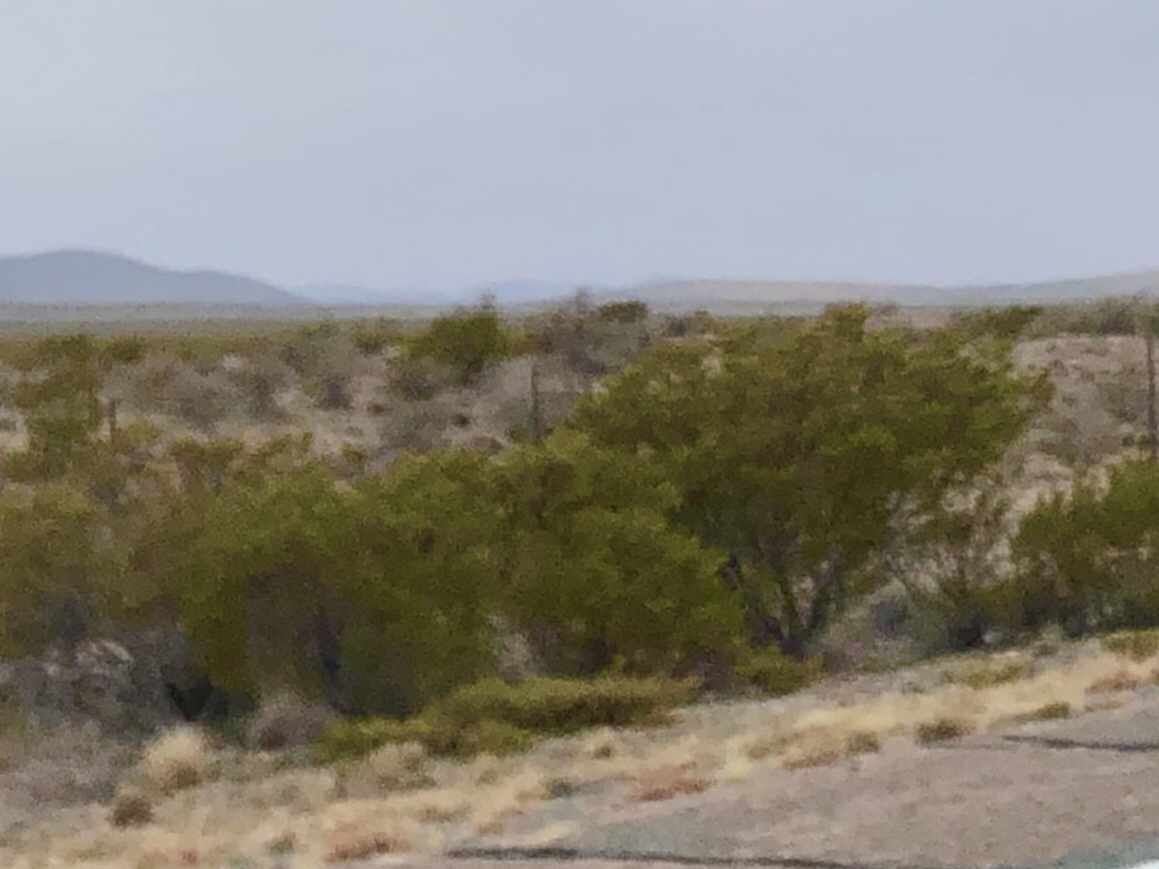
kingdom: Plantae
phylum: Tracheophyta
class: Magnoliopsida
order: Zygophyllales
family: Zygophyllaceae
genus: Larrea
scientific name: Larrea tridentata
